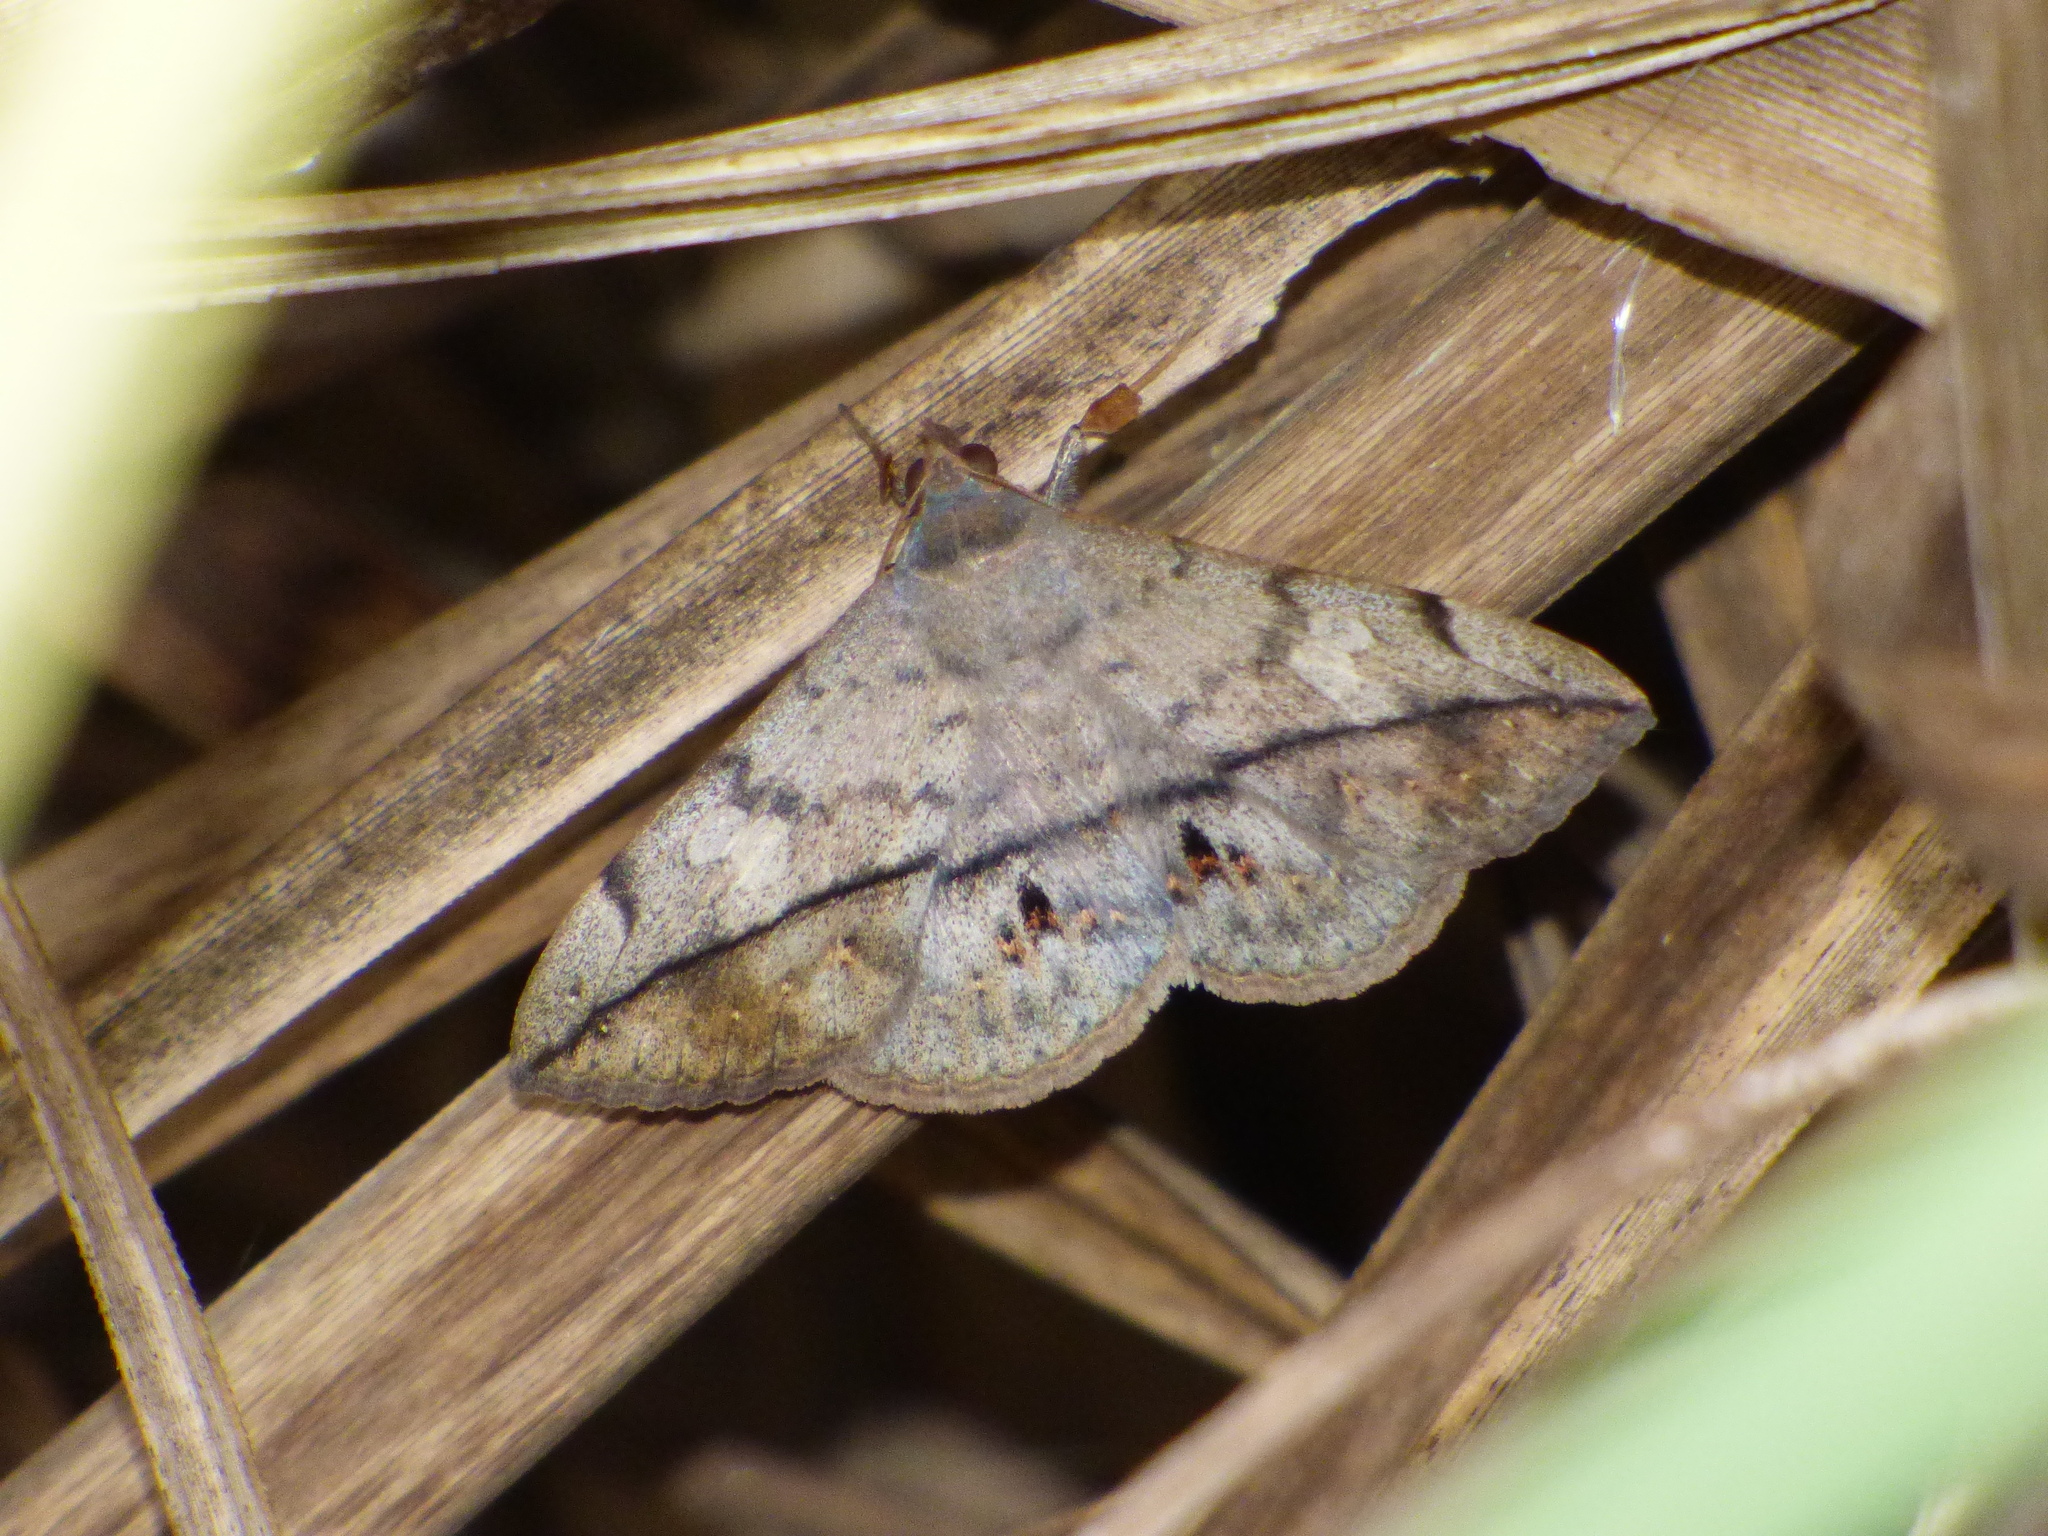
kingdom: Animalia
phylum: Arthropoda
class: Insecta
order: Lepidoptera
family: Erebidae
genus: Anticarsia
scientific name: Anticarsia gemmatalis
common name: Cutworm moth
